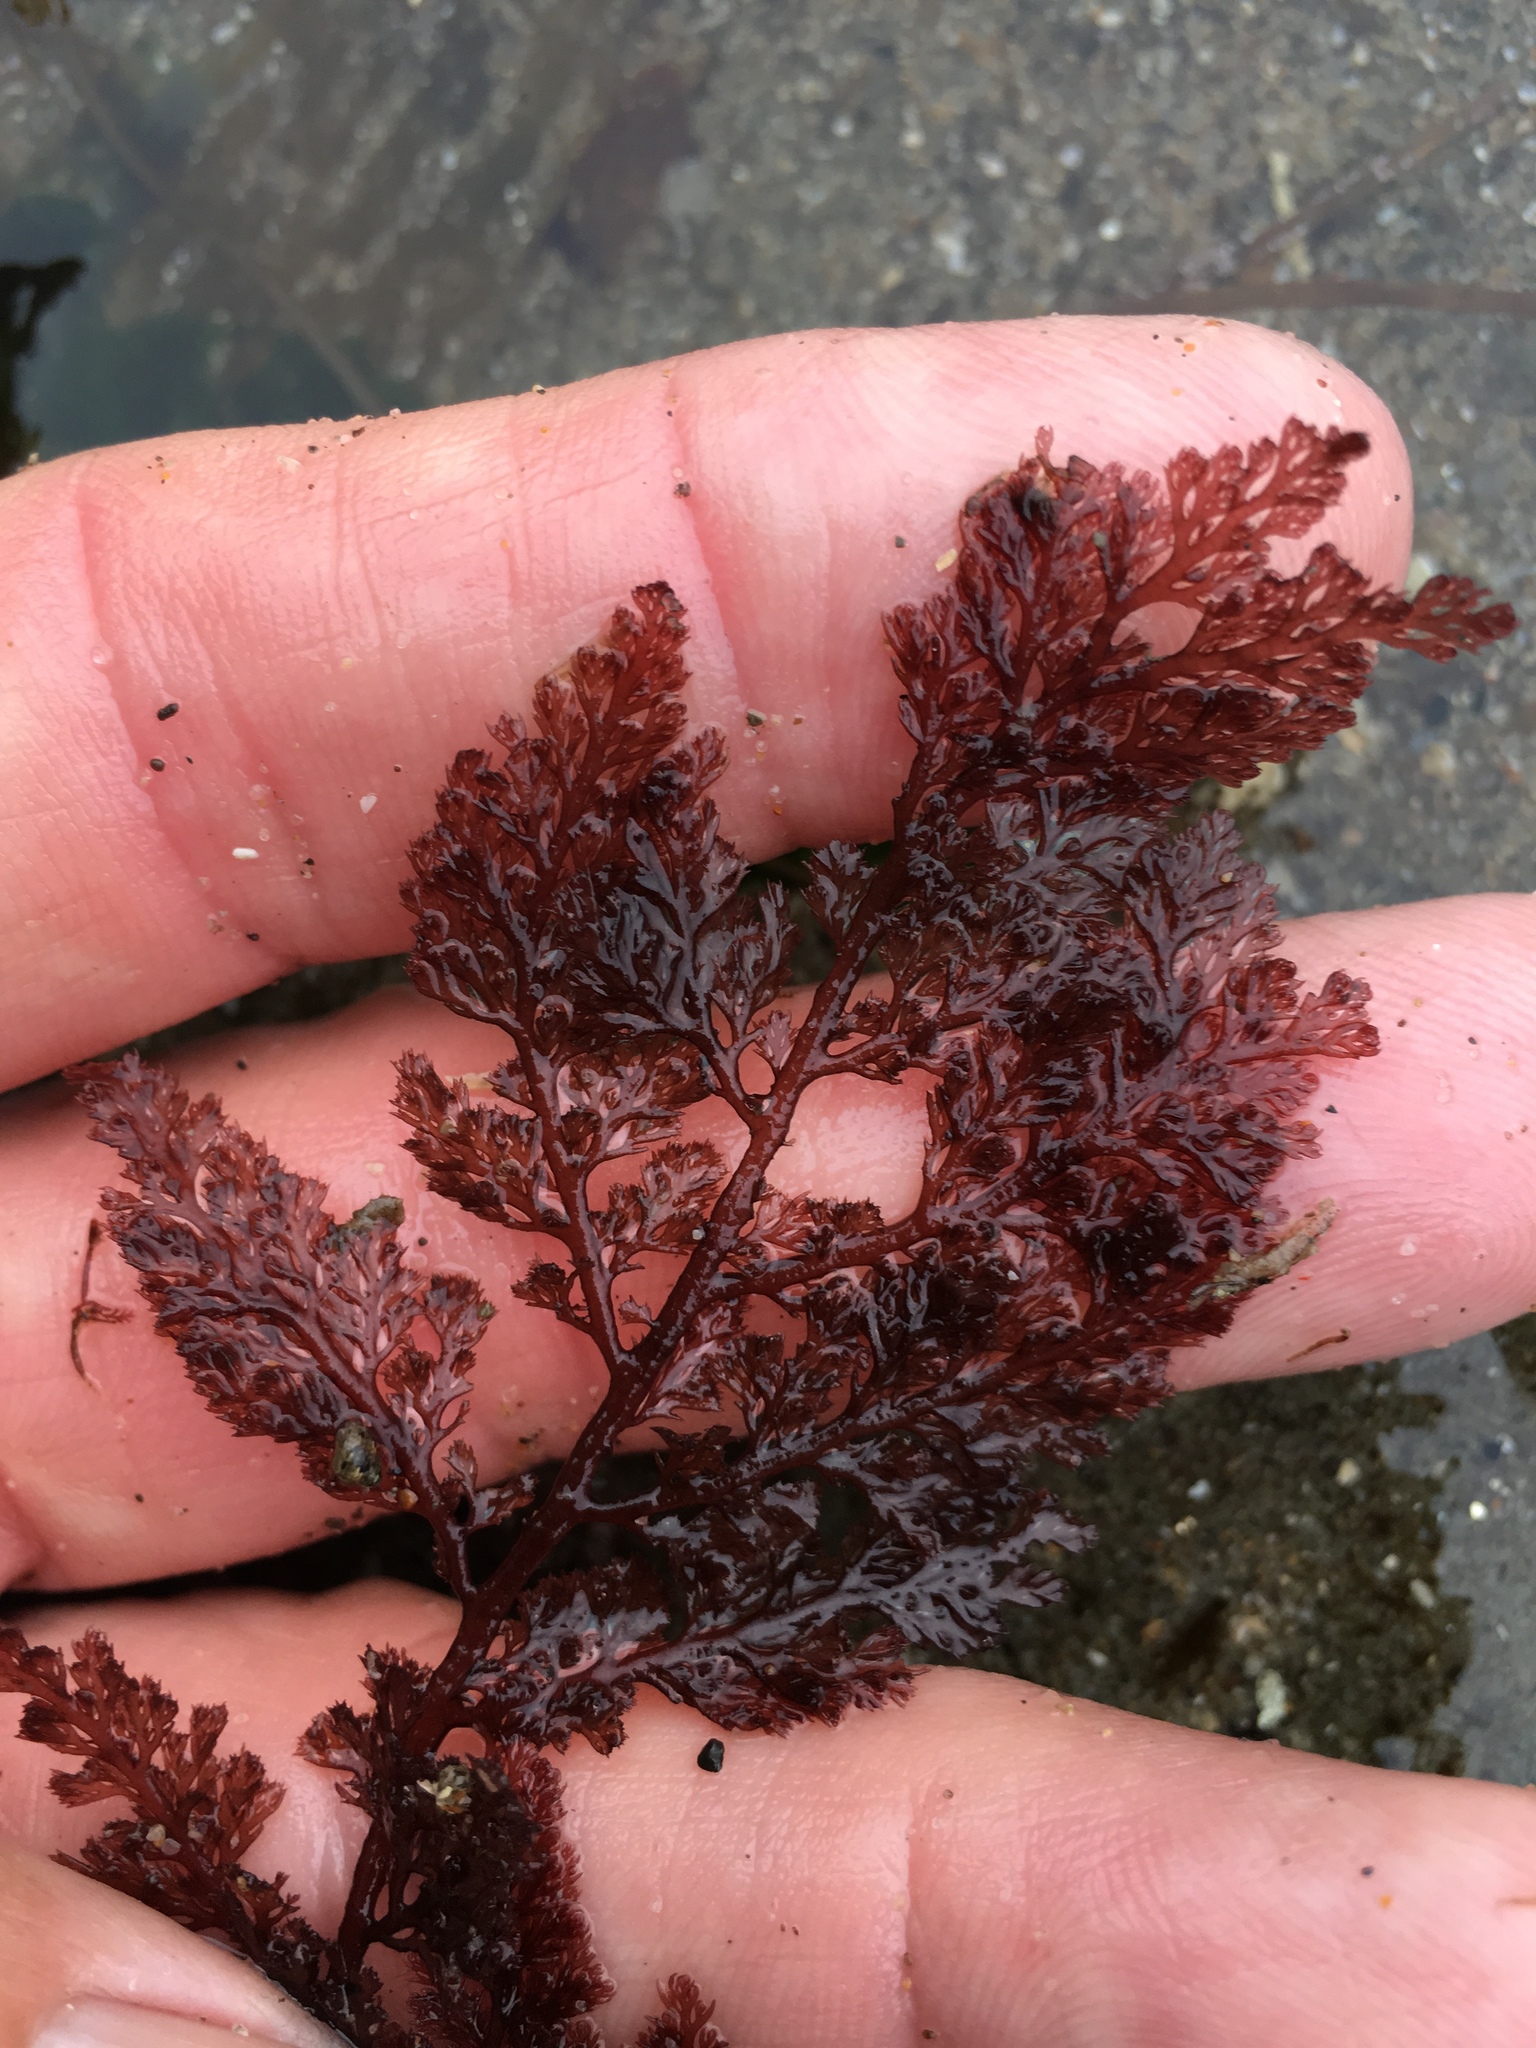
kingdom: Plantae
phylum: Rhodophyta
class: Florideophyceae
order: Ceramiales
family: Ceramiaceae
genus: Microcladia
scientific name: Microcladia coulteri
